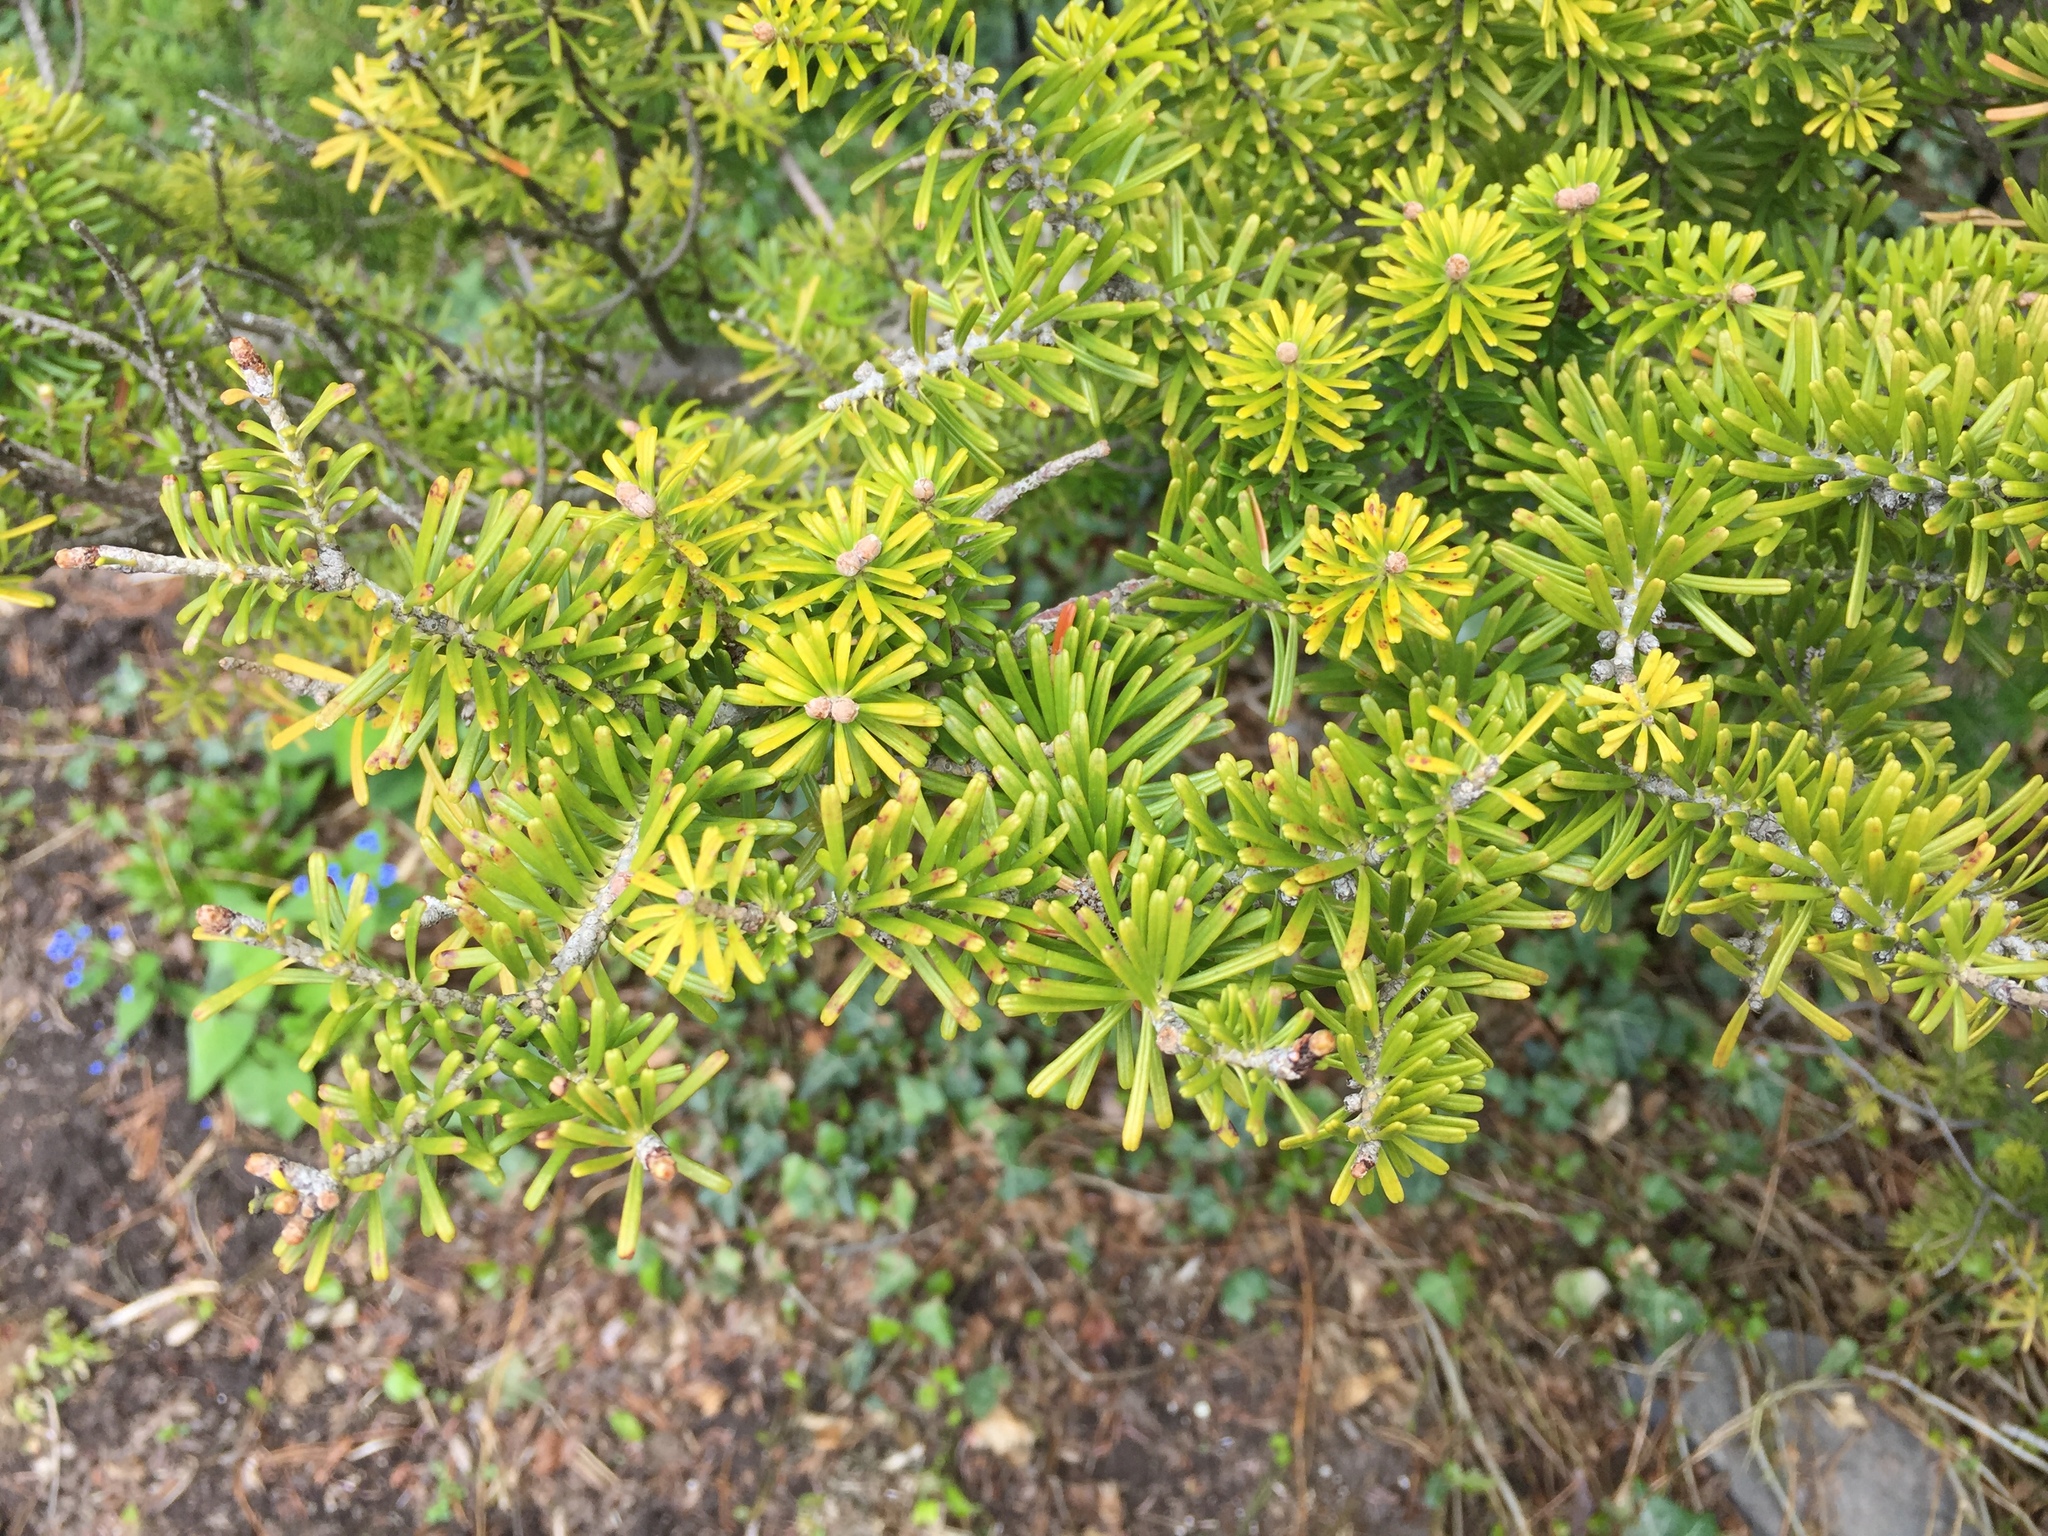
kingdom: Plantae
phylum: Tracheophyta
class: Pinopsida
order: Pinales
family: Pinaceae
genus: Abies
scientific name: Abies balsamea
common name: Balsam fir
